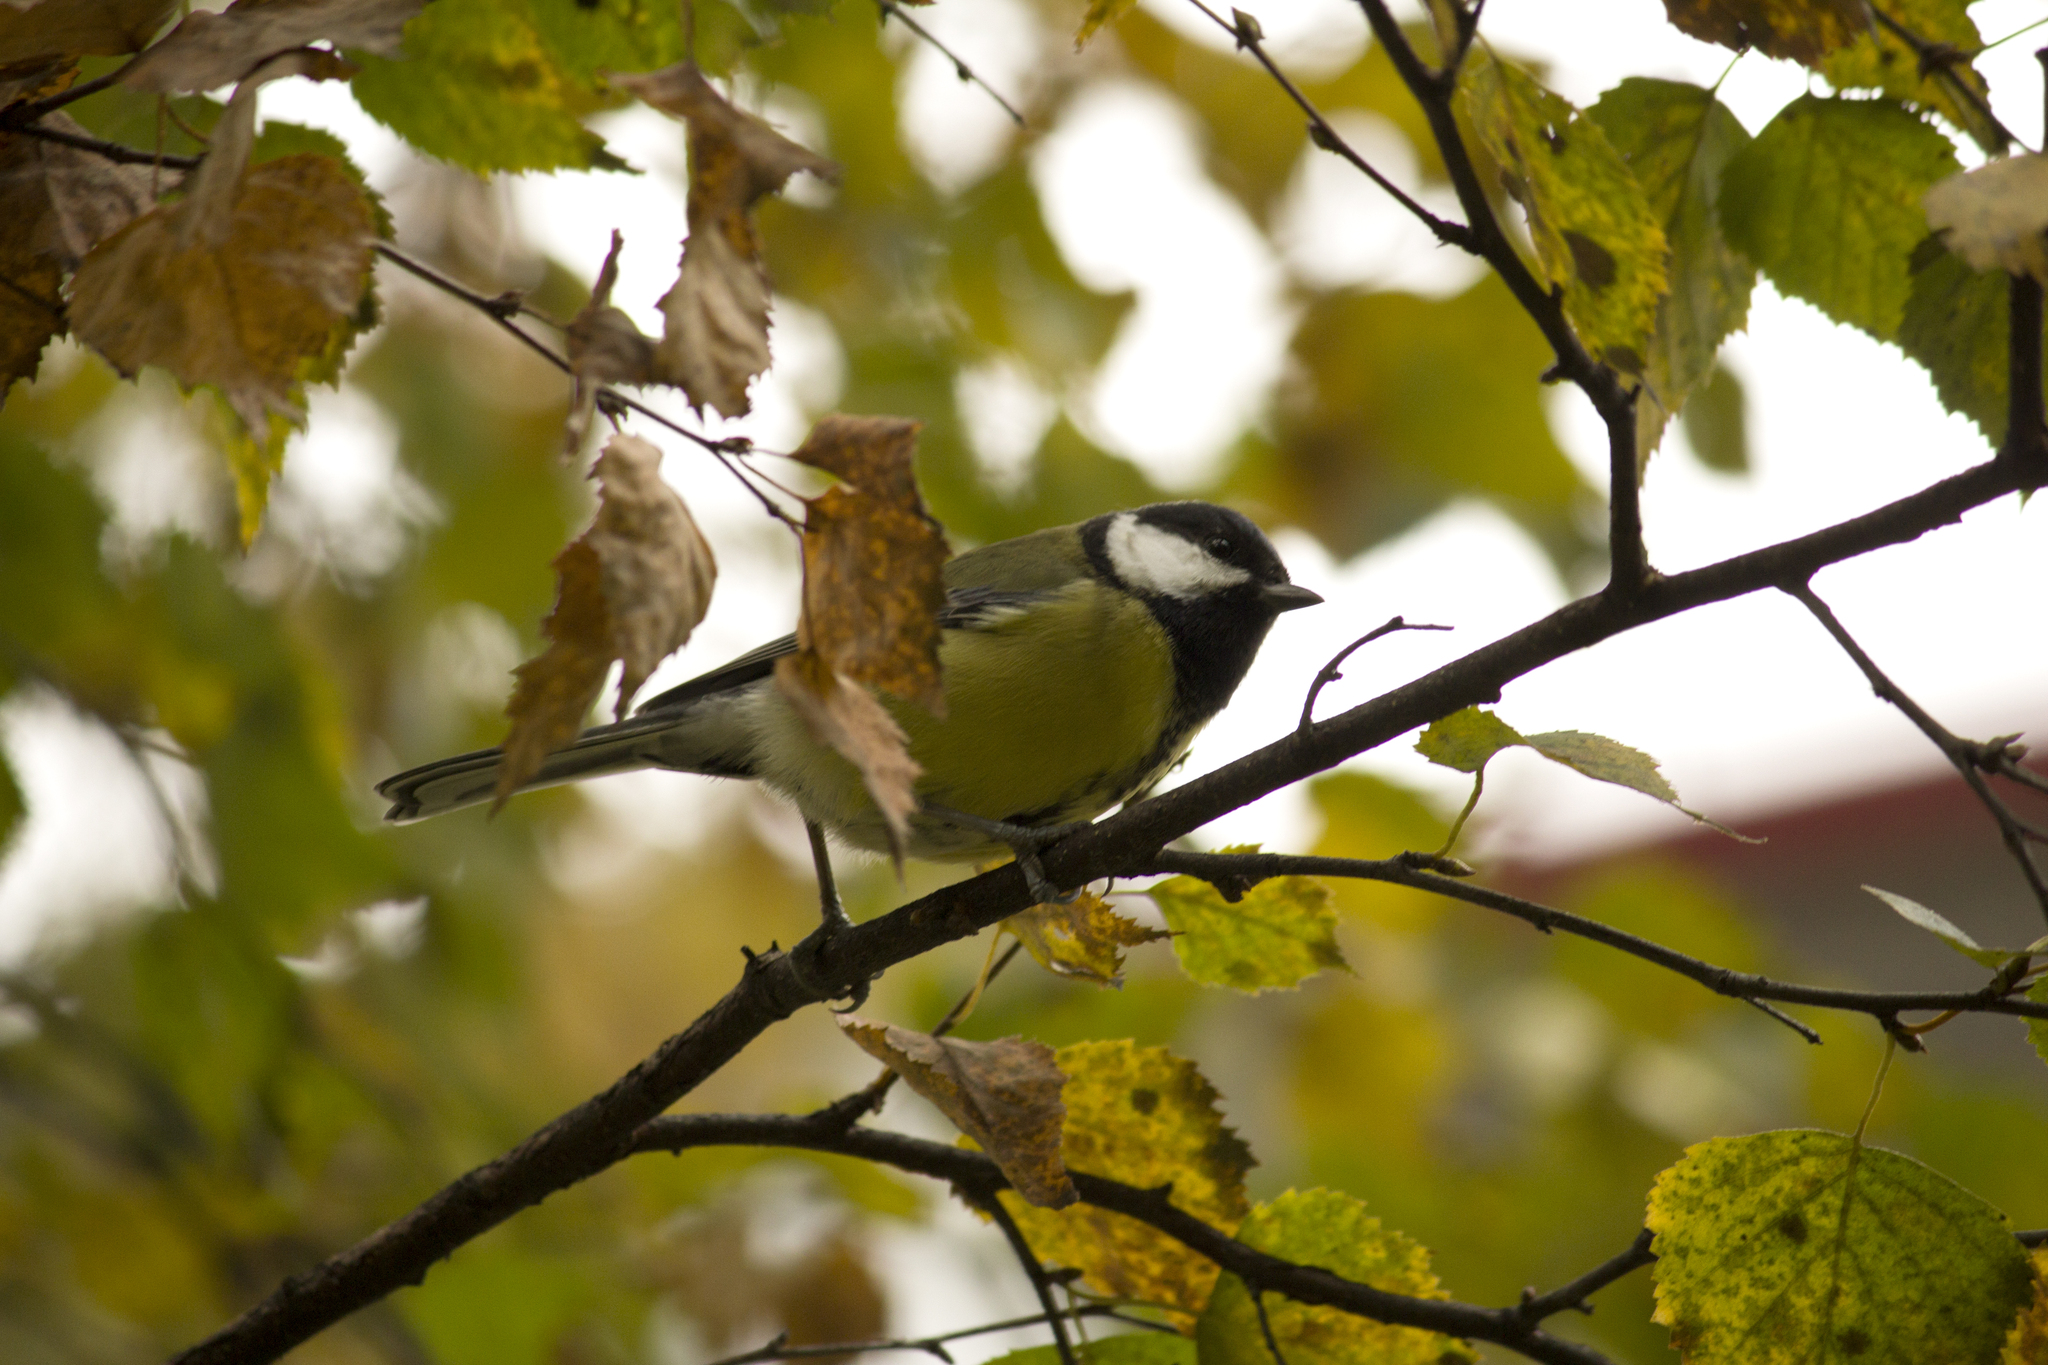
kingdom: Animalia
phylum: Chordata
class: Aves
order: Passeriformes
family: Paridae
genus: Parus
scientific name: Parus major
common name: Great tit
